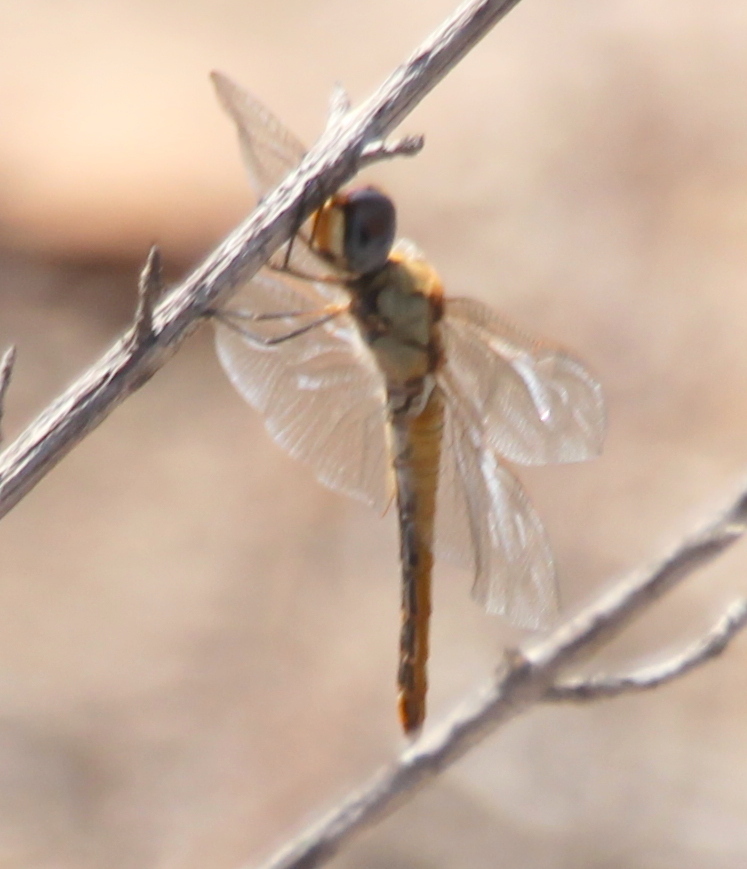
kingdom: Animalia
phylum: Arthropoda
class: Insecta
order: Odonata
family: Libellulidae
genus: Pantala
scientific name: Pantala flavescens
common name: Wandering glider
